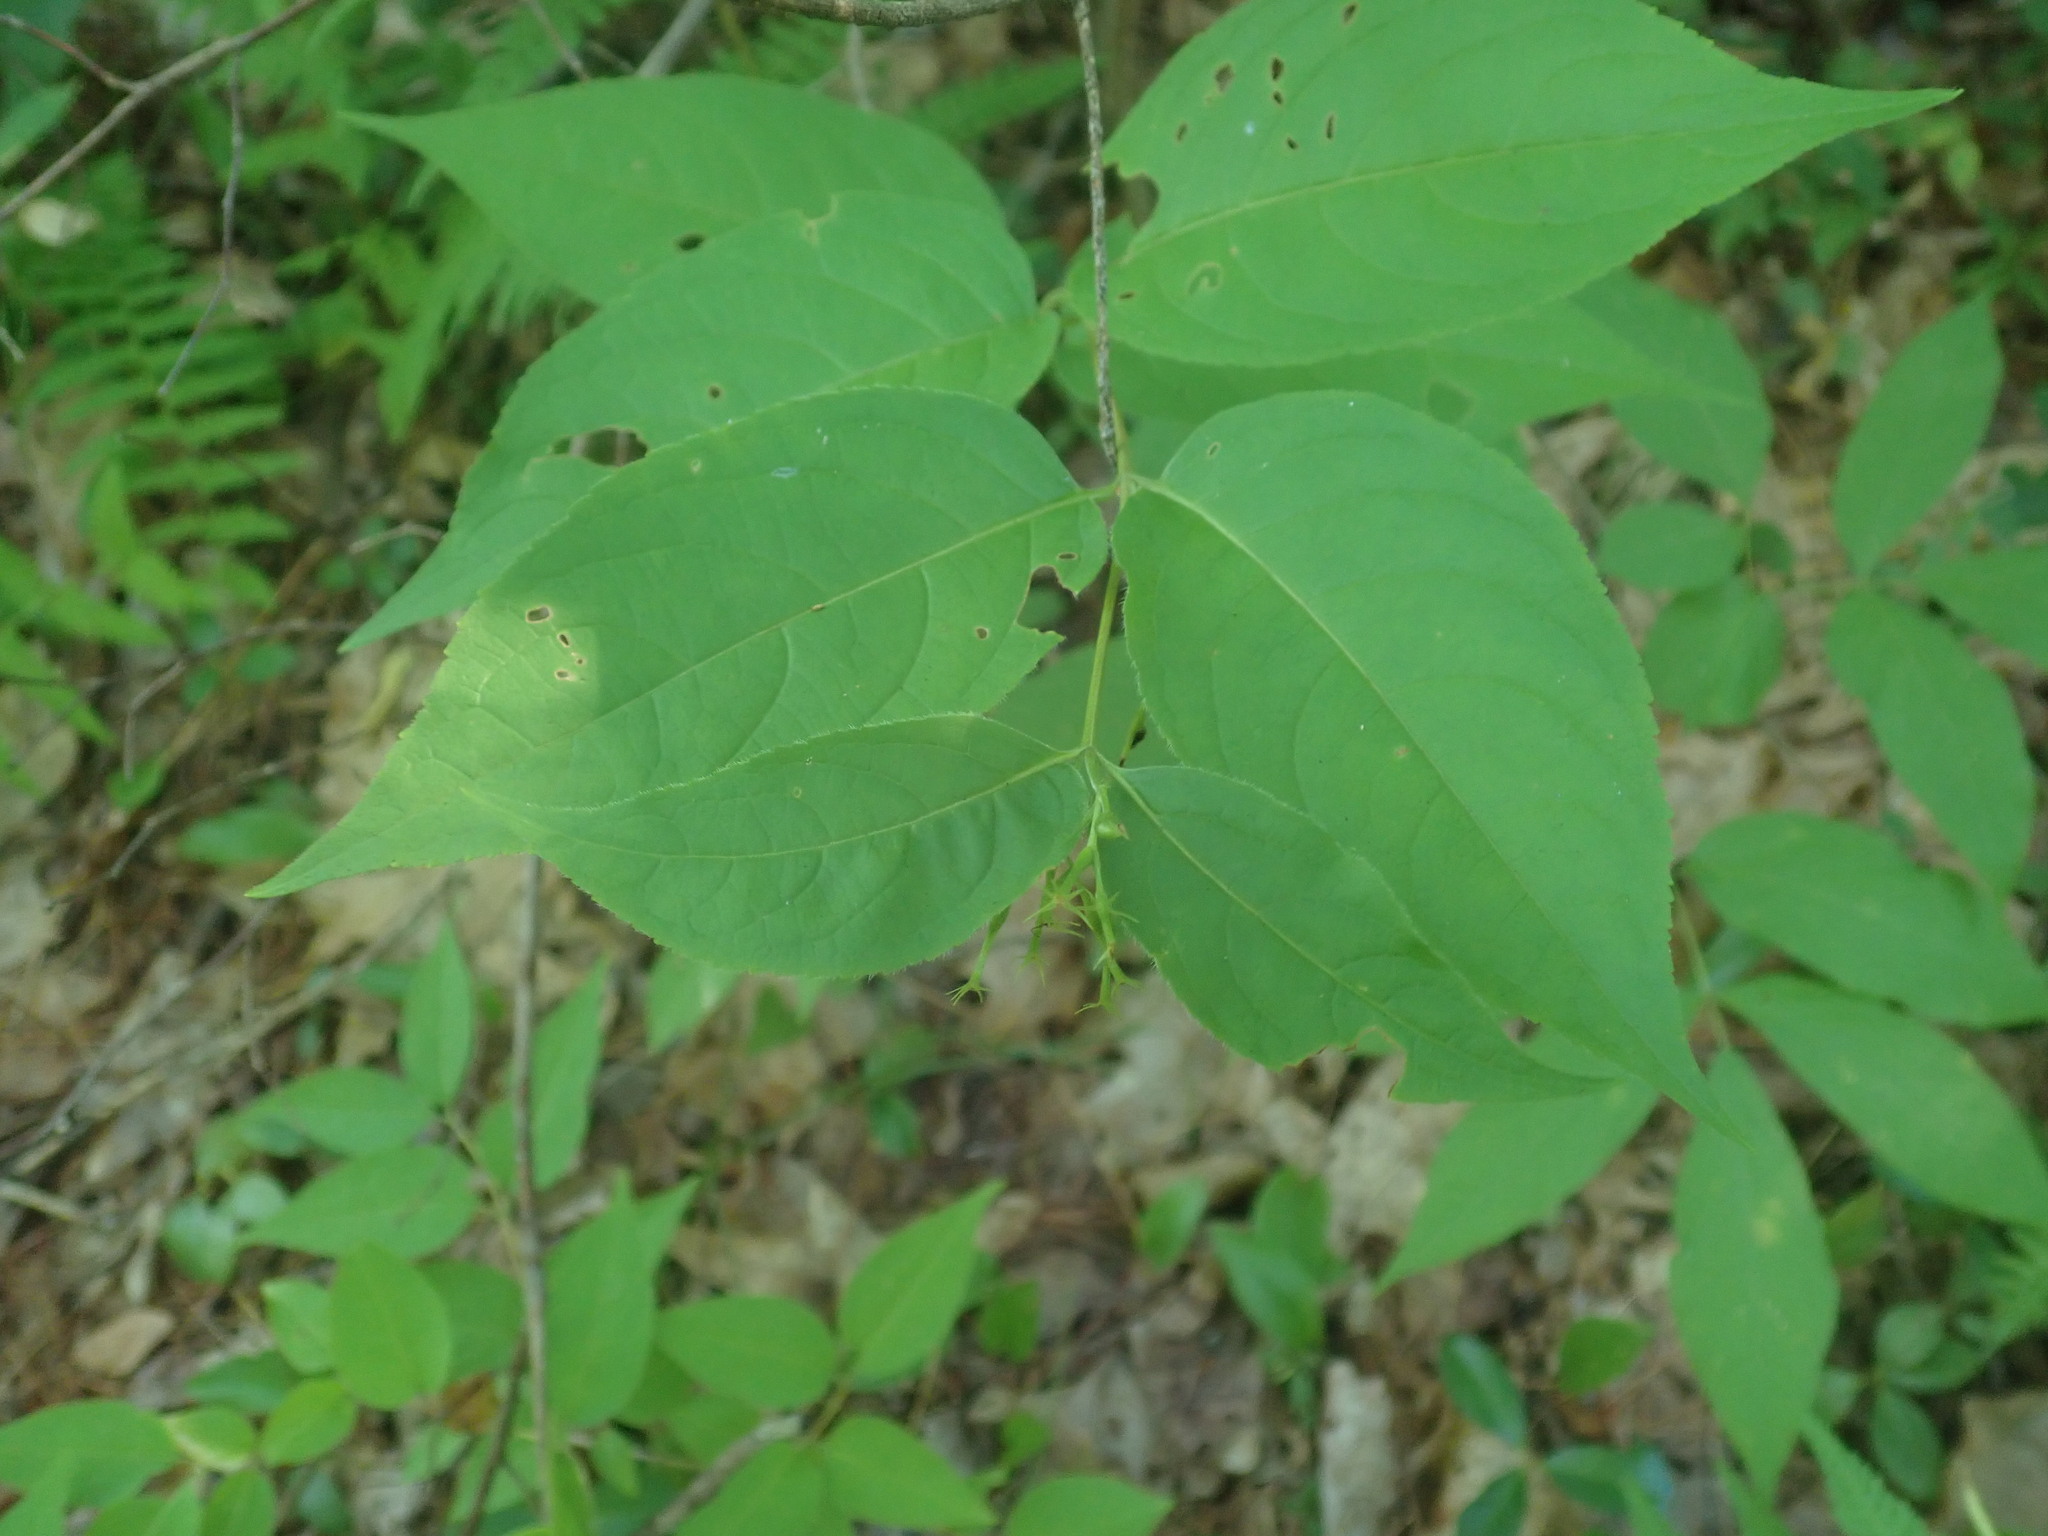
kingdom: Plantae
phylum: Tracheophyta
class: Magnoliopsida
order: Dipsacales
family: Caprifoliaceae
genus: Diervilla
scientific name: Diervilla lonicera
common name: Bush-honeysuckle
